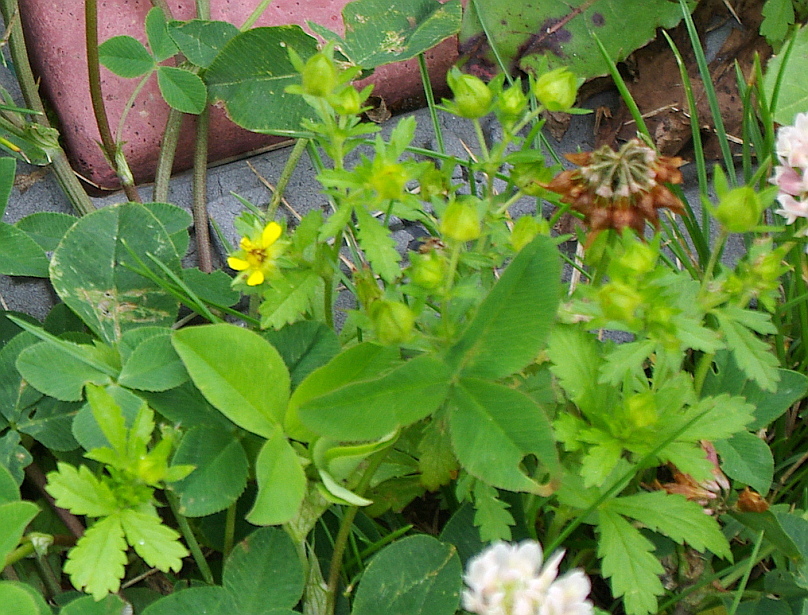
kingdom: Plantae
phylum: Tracheophyta
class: Magnoliopsida
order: Rosales
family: Rosaceae
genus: Potentilla
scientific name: Potentilla norvegica
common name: Ternate-leaved cinquefoil
